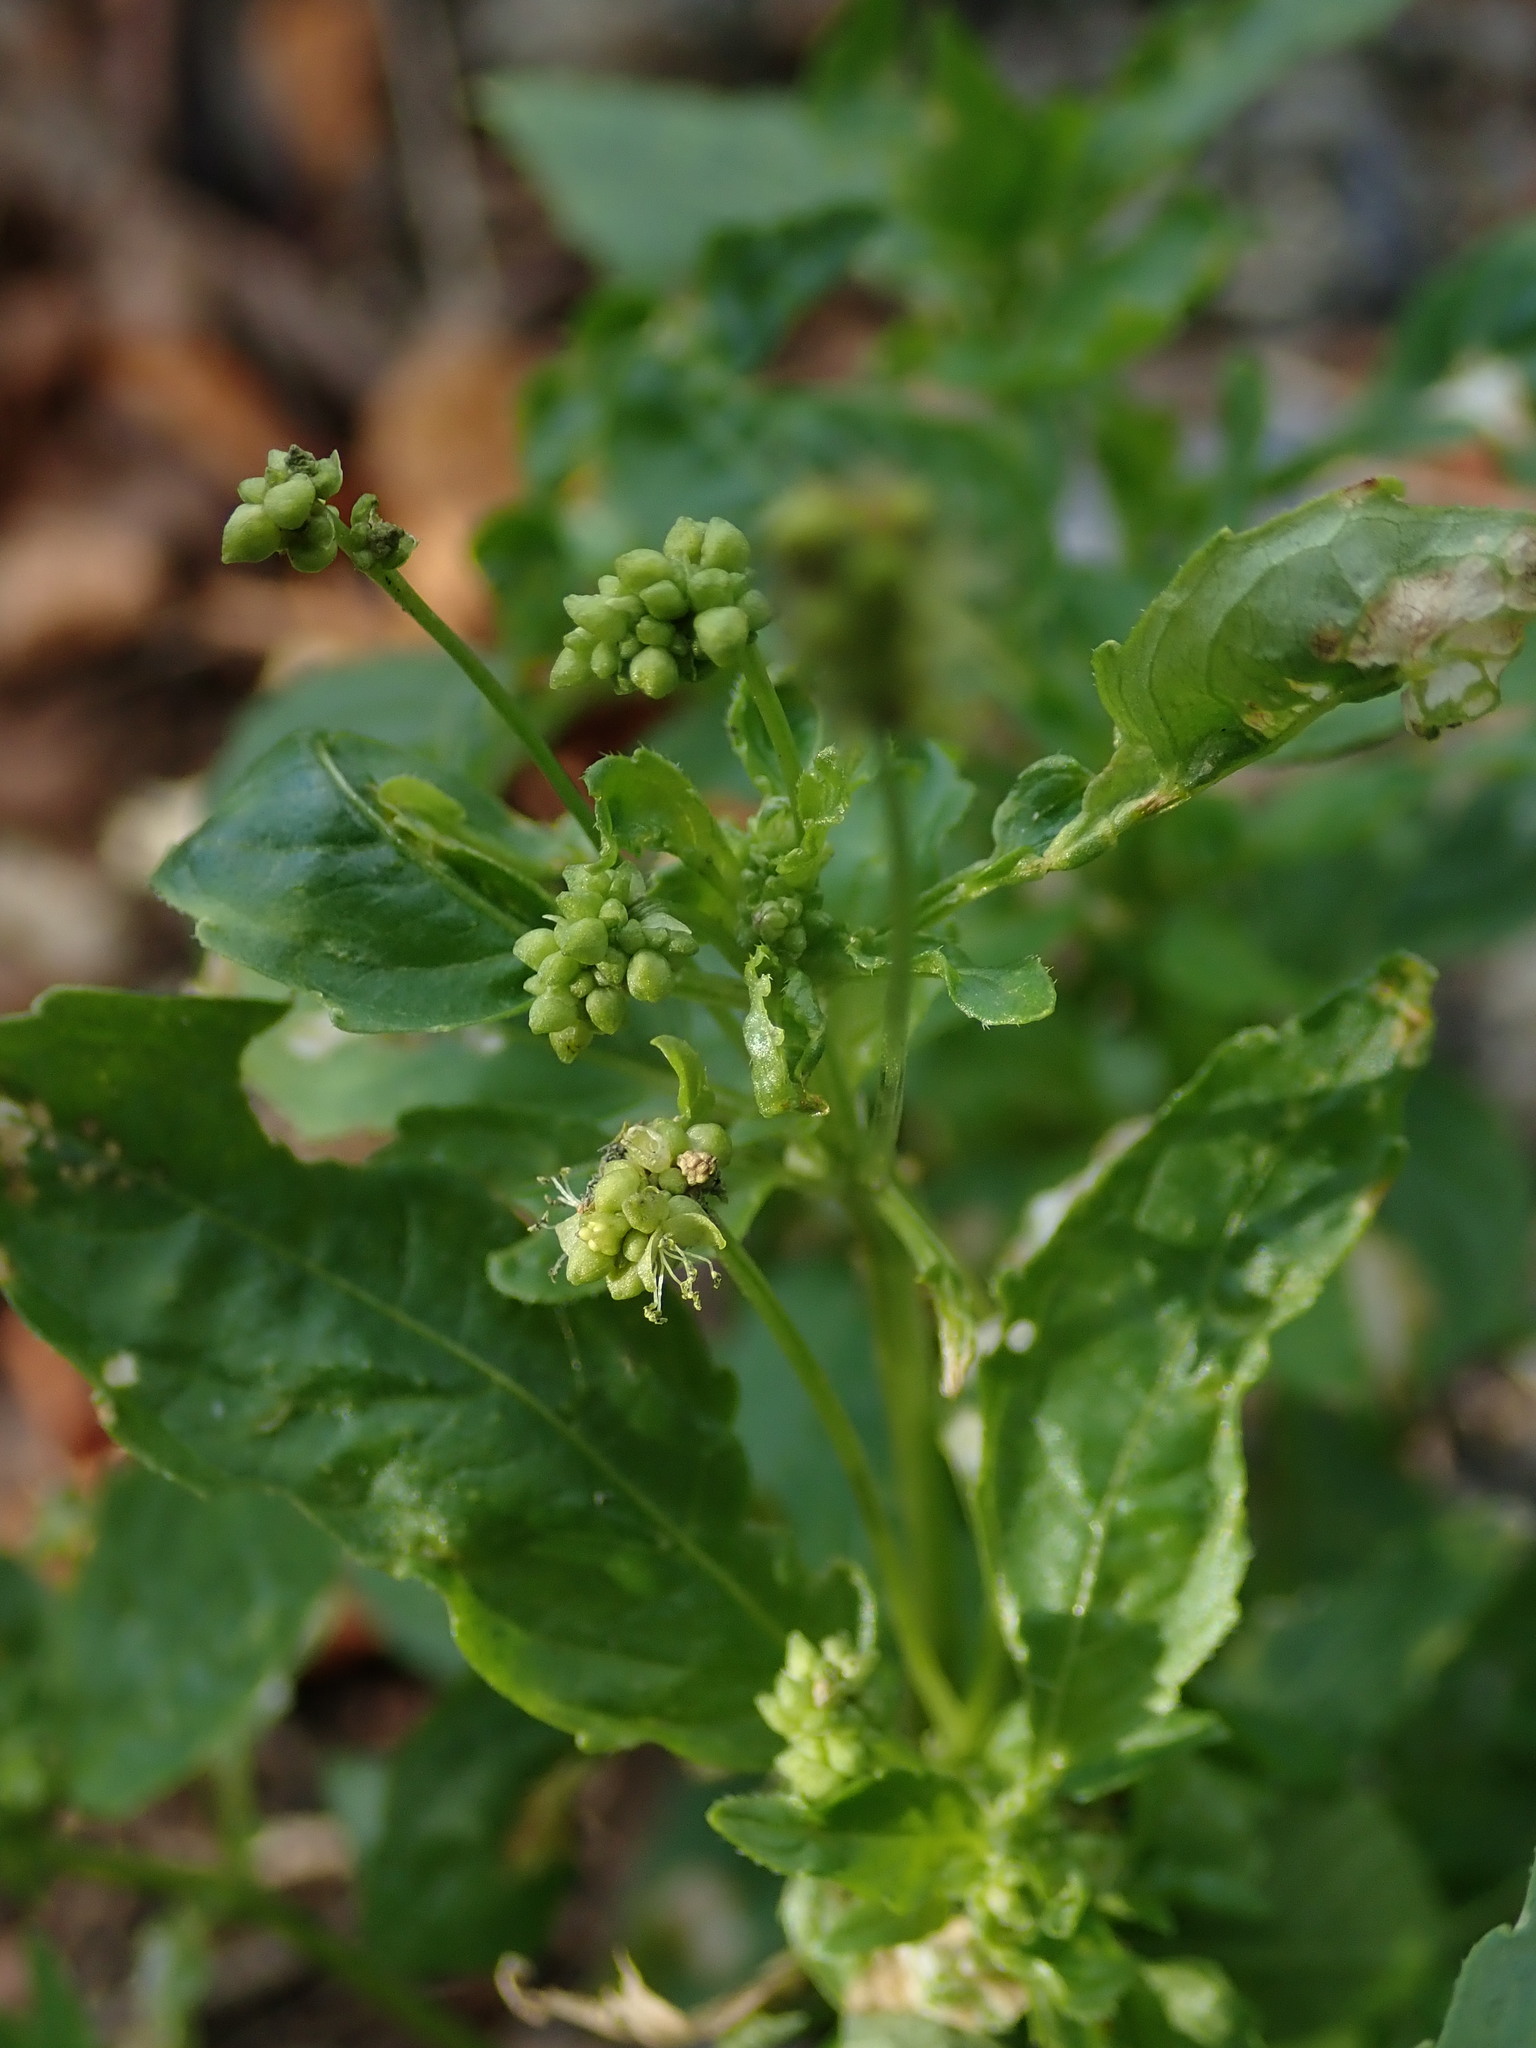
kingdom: Plantae
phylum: Tracheophyta
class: Magnoliopsida
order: Malpighiales
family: Euphorbiaceae
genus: Mercurialis
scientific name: Mercurialis annua
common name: Annual mercury
